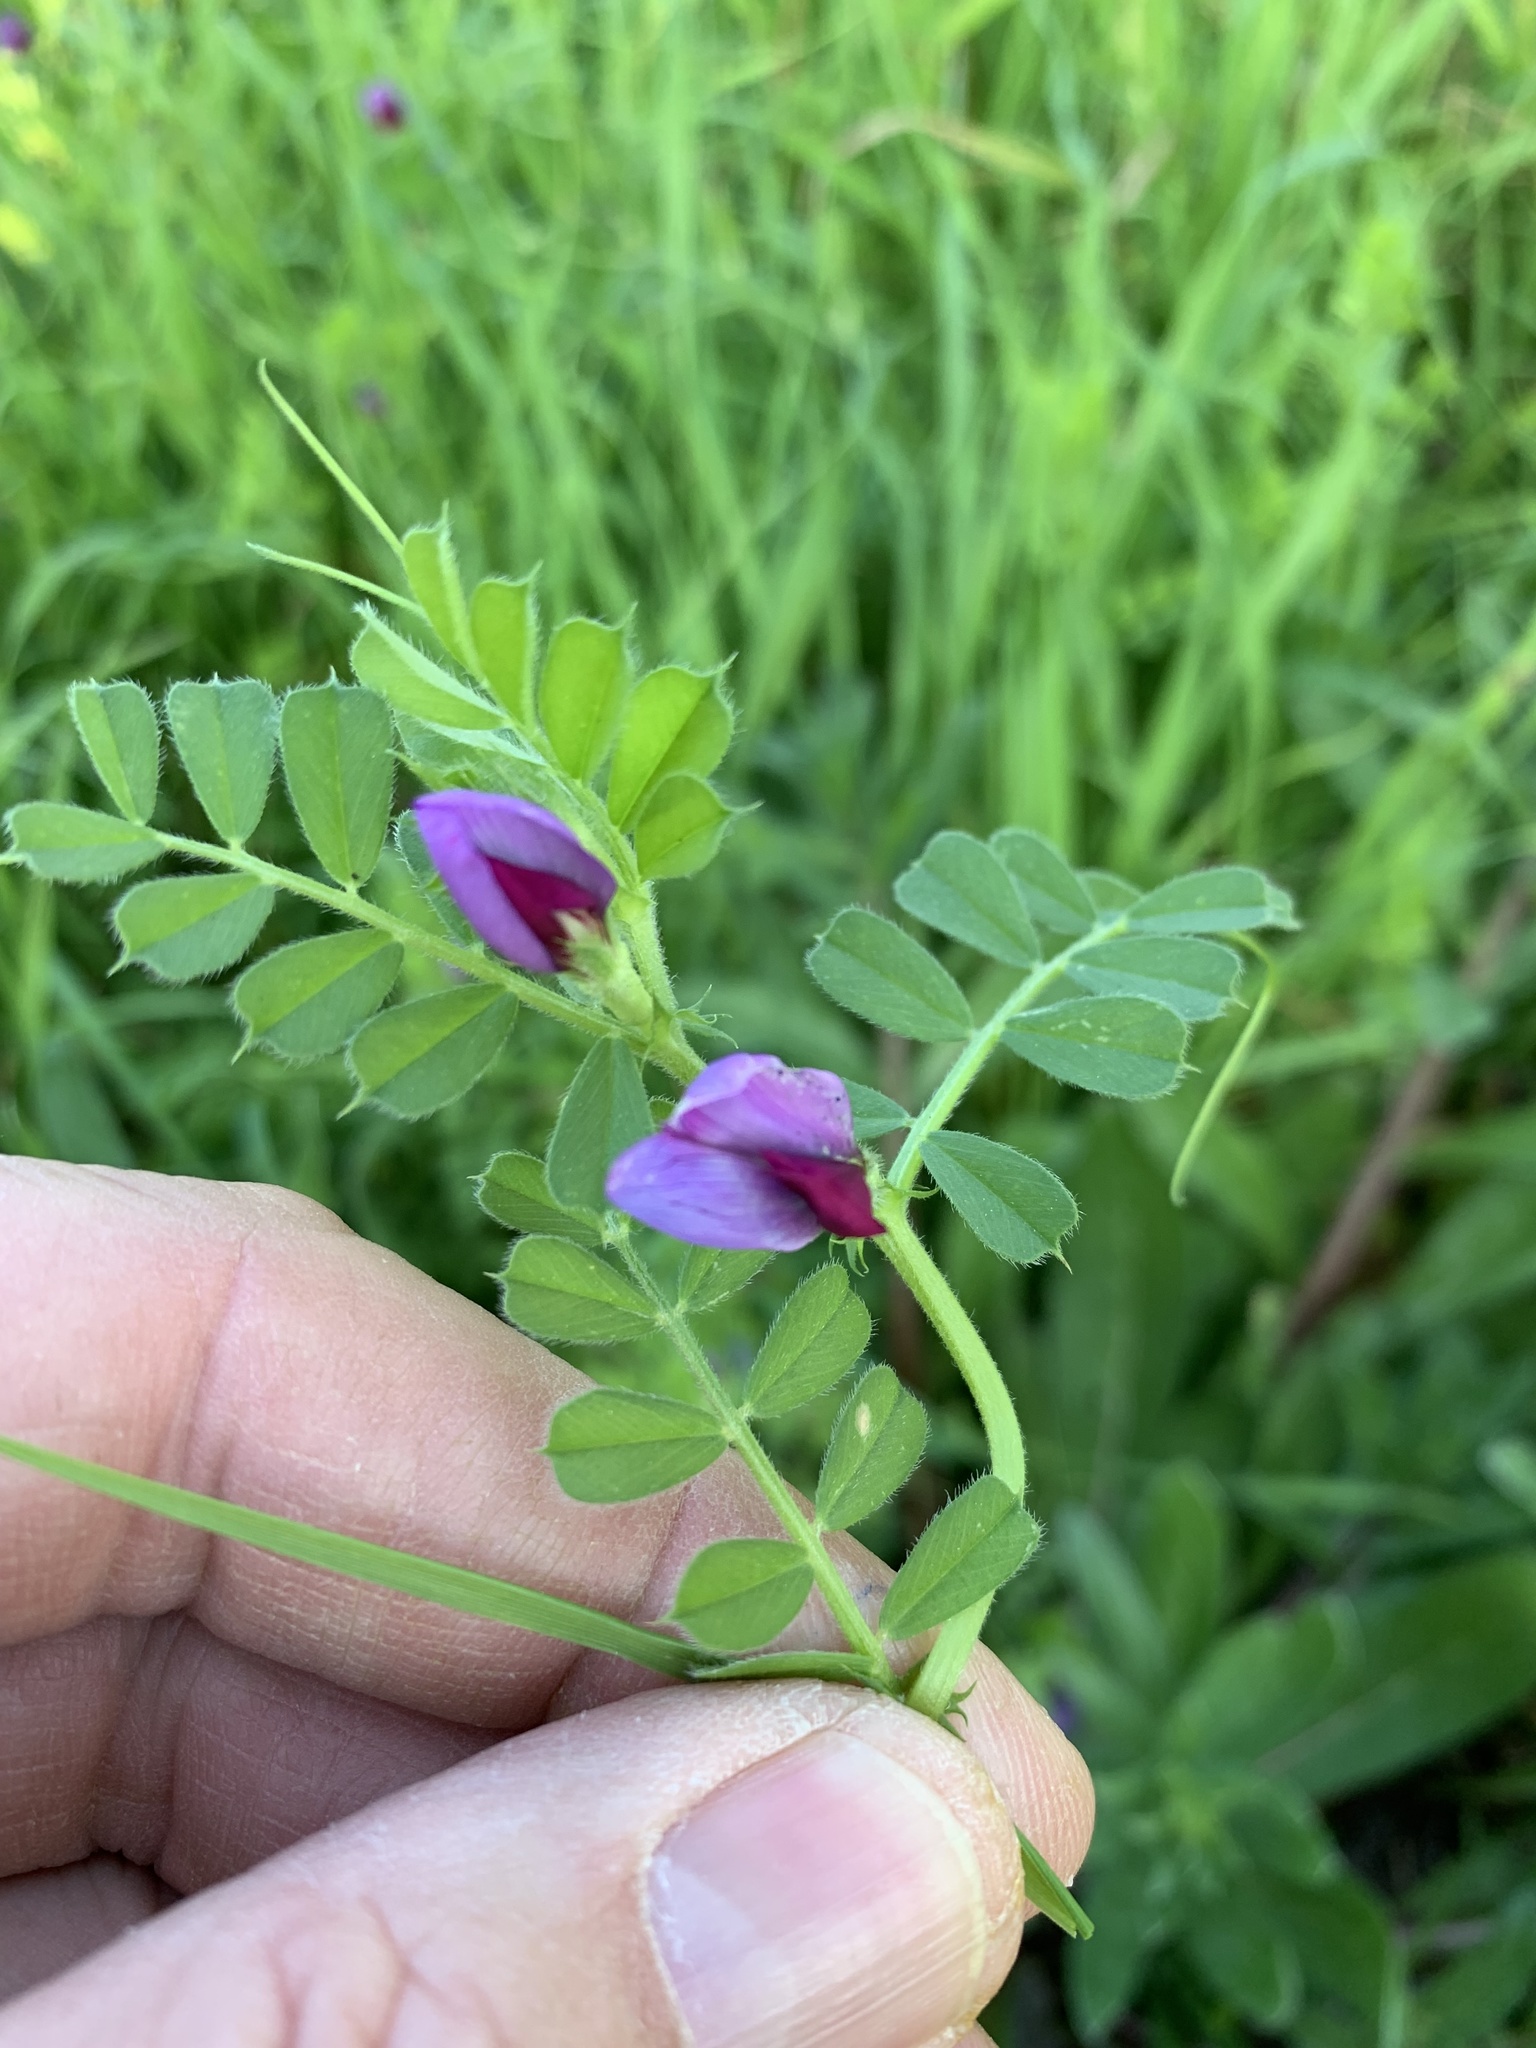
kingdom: Plantae
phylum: Tracheophyta
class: Magnoliopsida
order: Fabales
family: Fabaceae
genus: Vicia
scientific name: Vicia sativa
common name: Garden vetch
